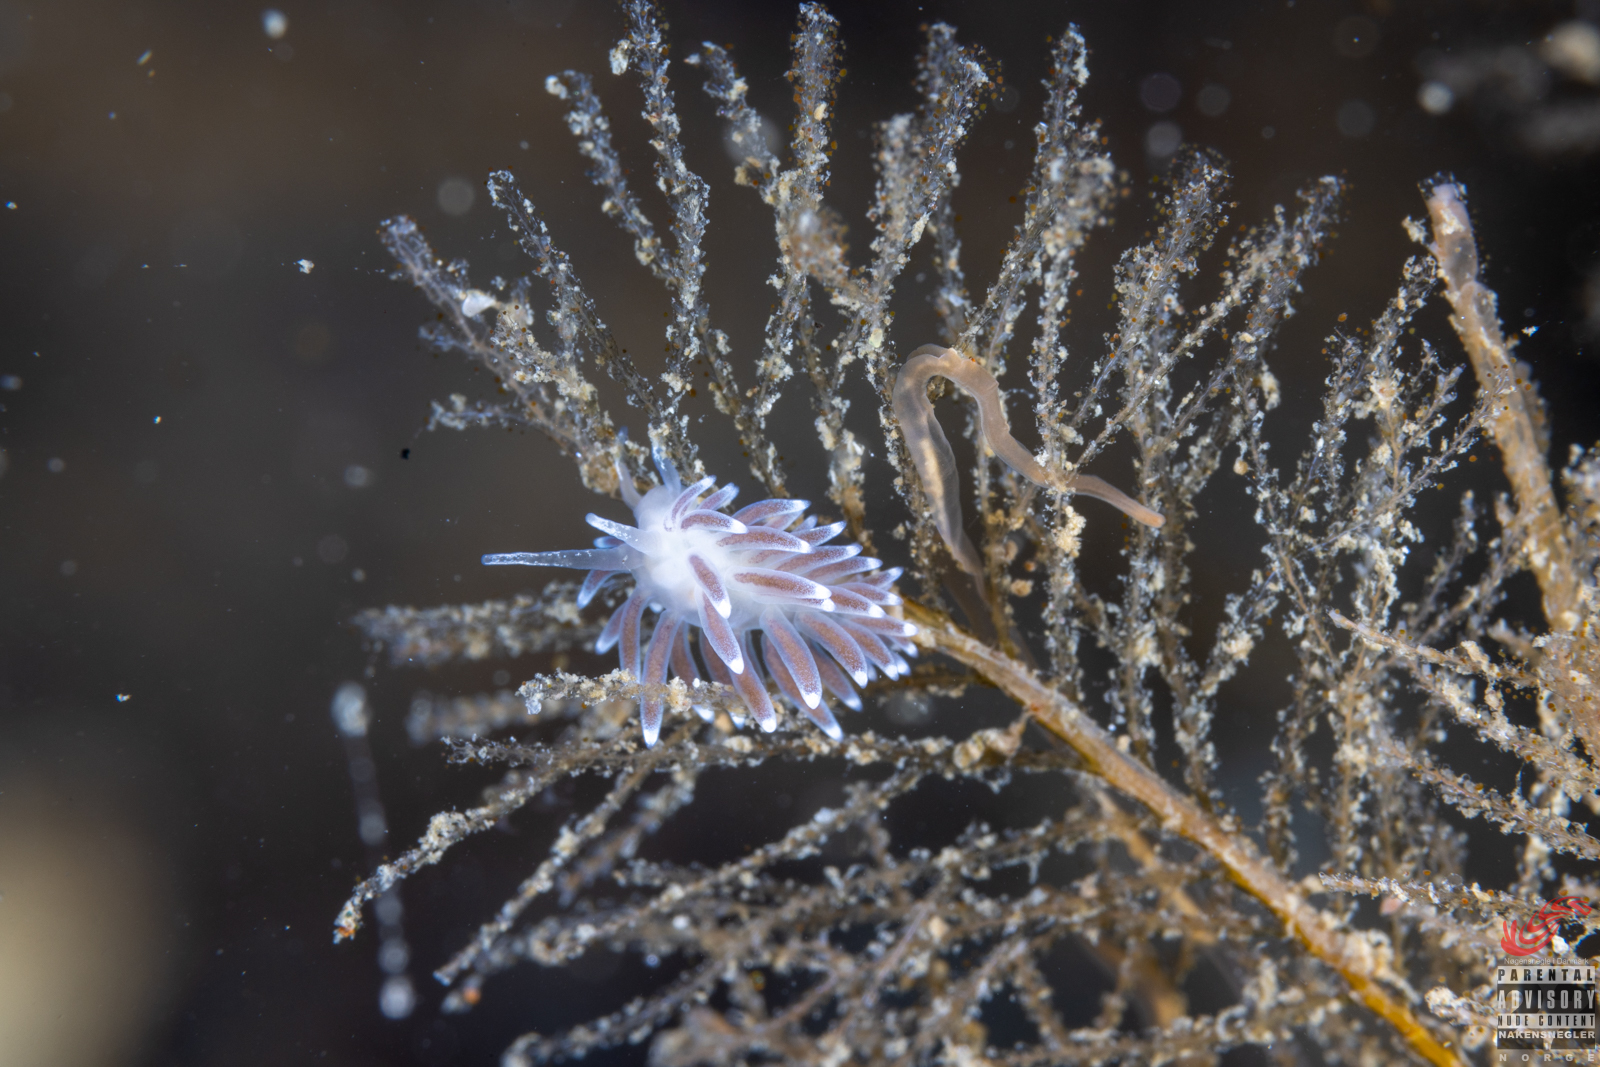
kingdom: Animalia
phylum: Mollusca
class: Gastropoda
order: Nudibranchia
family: Cuthonellidae
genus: Cuthonella
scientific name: Cuthonella concinna
